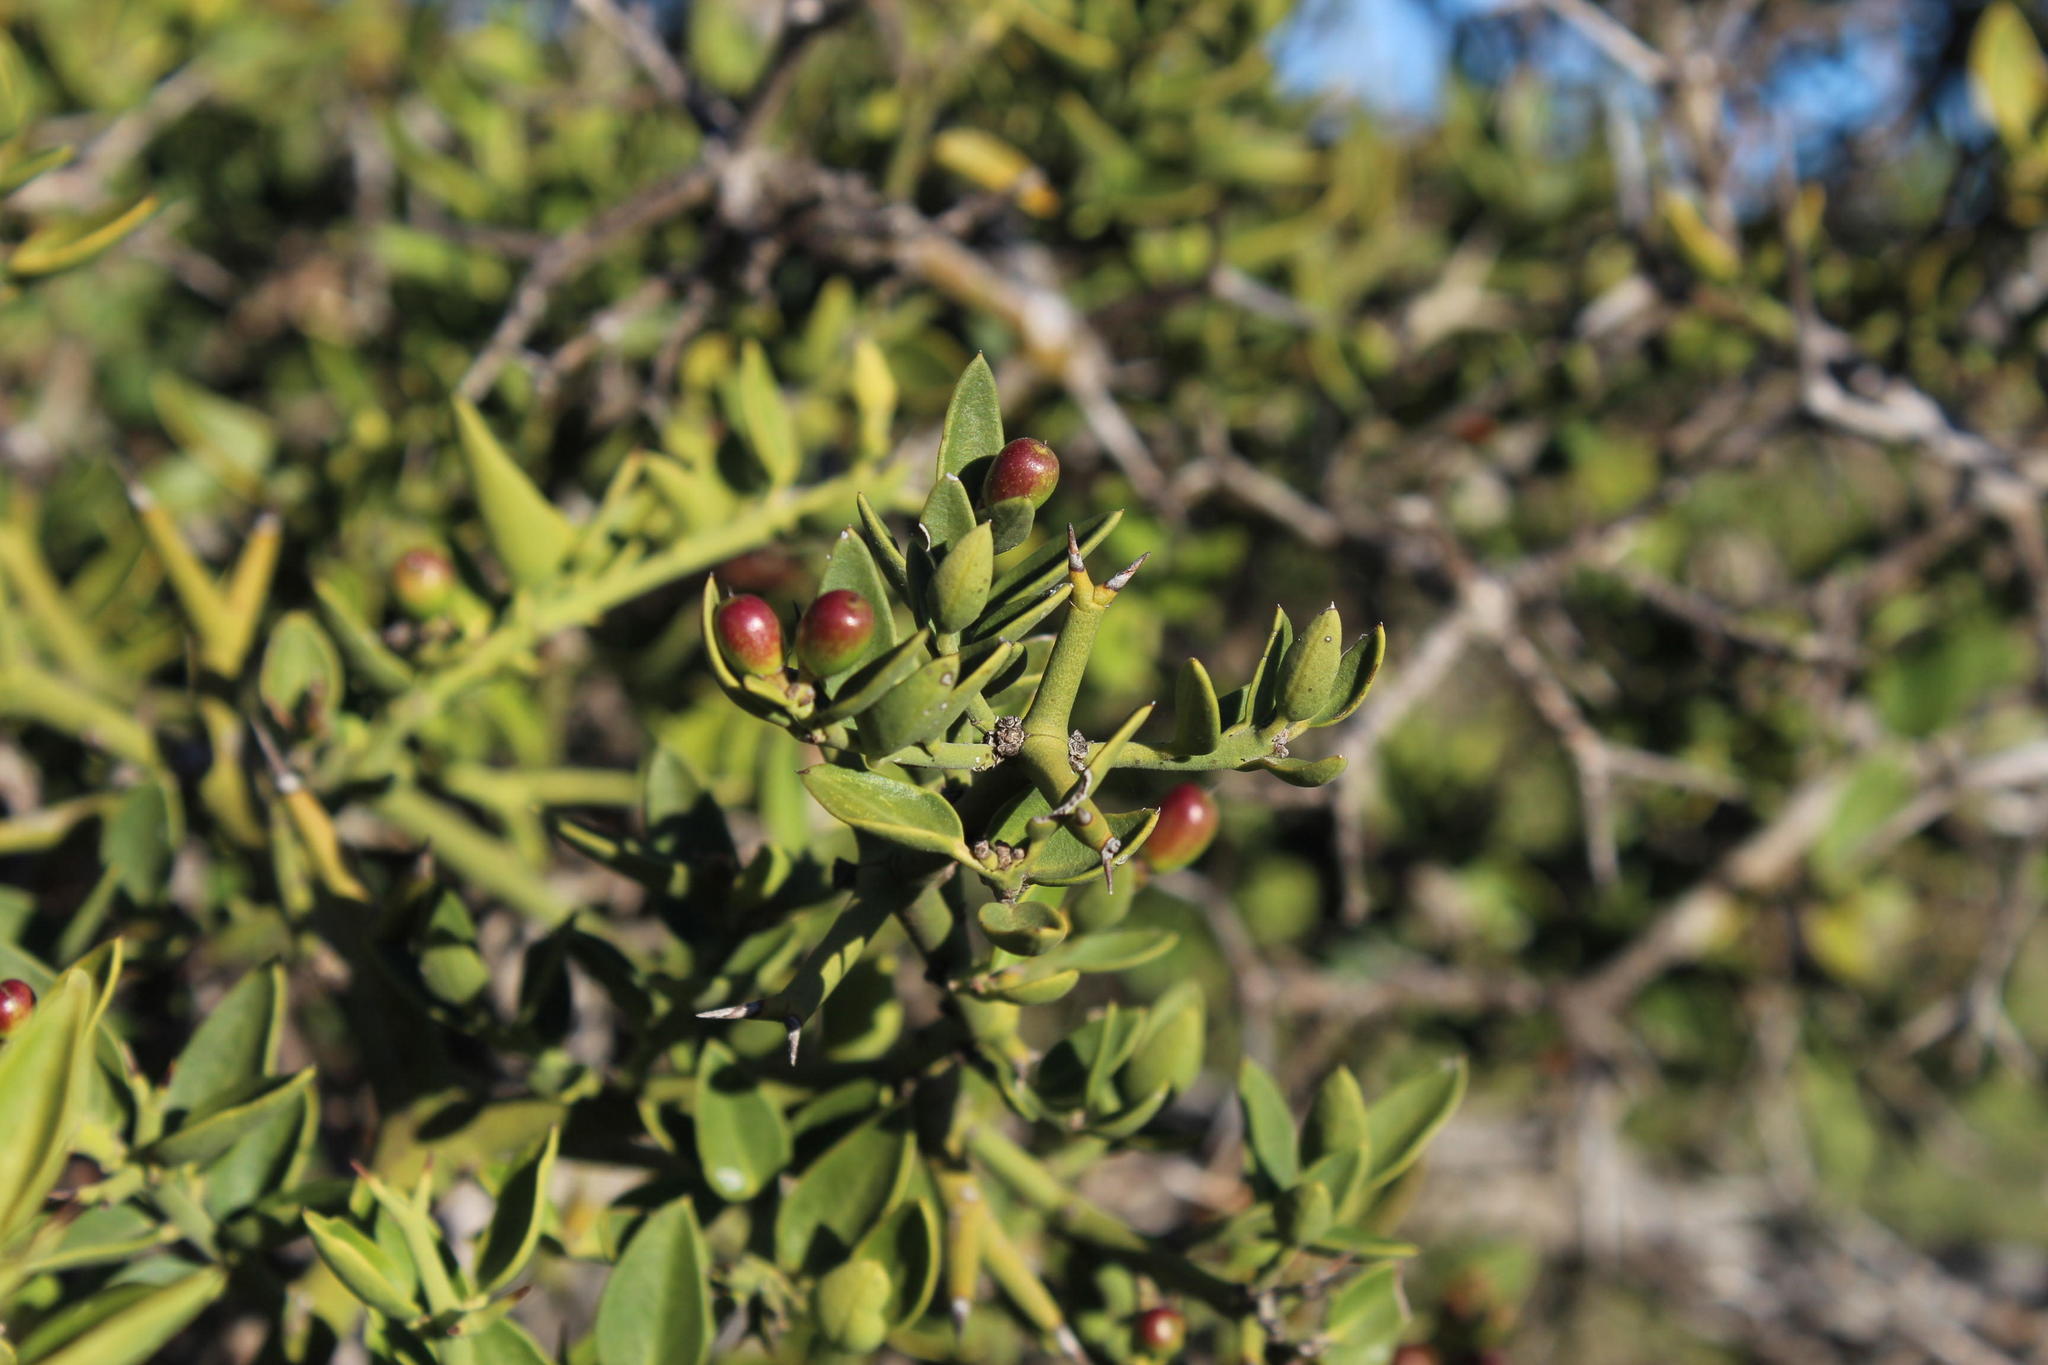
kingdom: Plantae
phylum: Tracheophyta
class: Magnoliopsida
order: Gentianales
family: Apocynaceae
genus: Carissa
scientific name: Carissa haematocarpa
